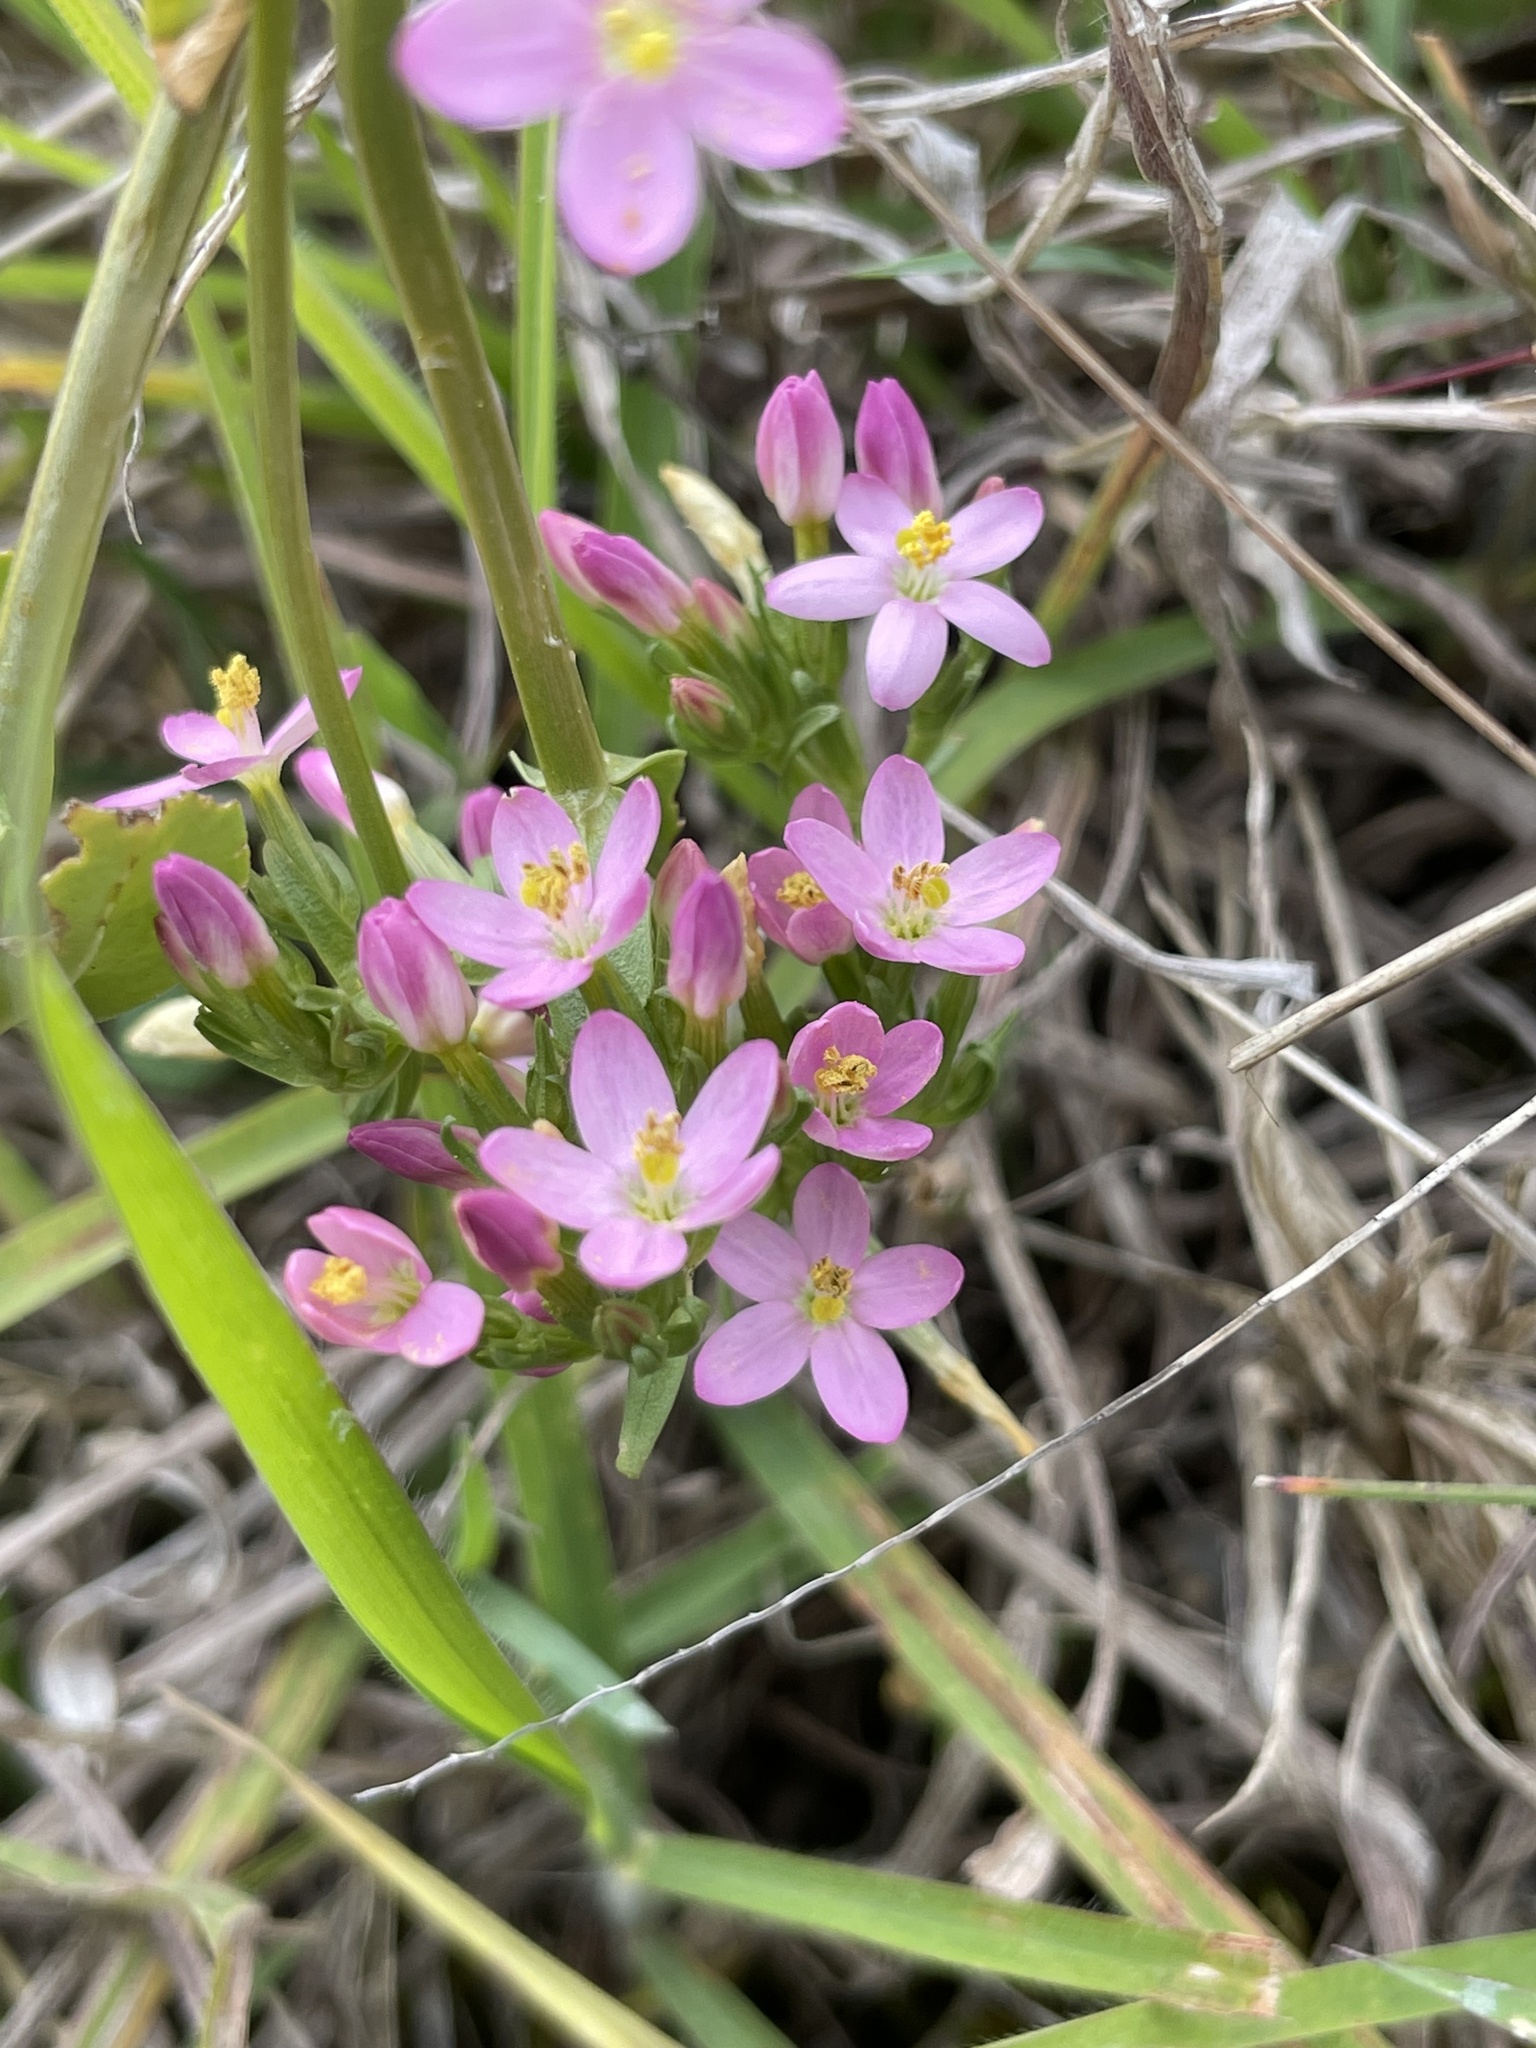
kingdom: Plantae
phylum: Tracheophyta
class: Magnoliopsida
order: Gentianales
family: Gentianaceae
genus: Centaurium
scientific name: Centaurium erythraea
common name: Common centaury
